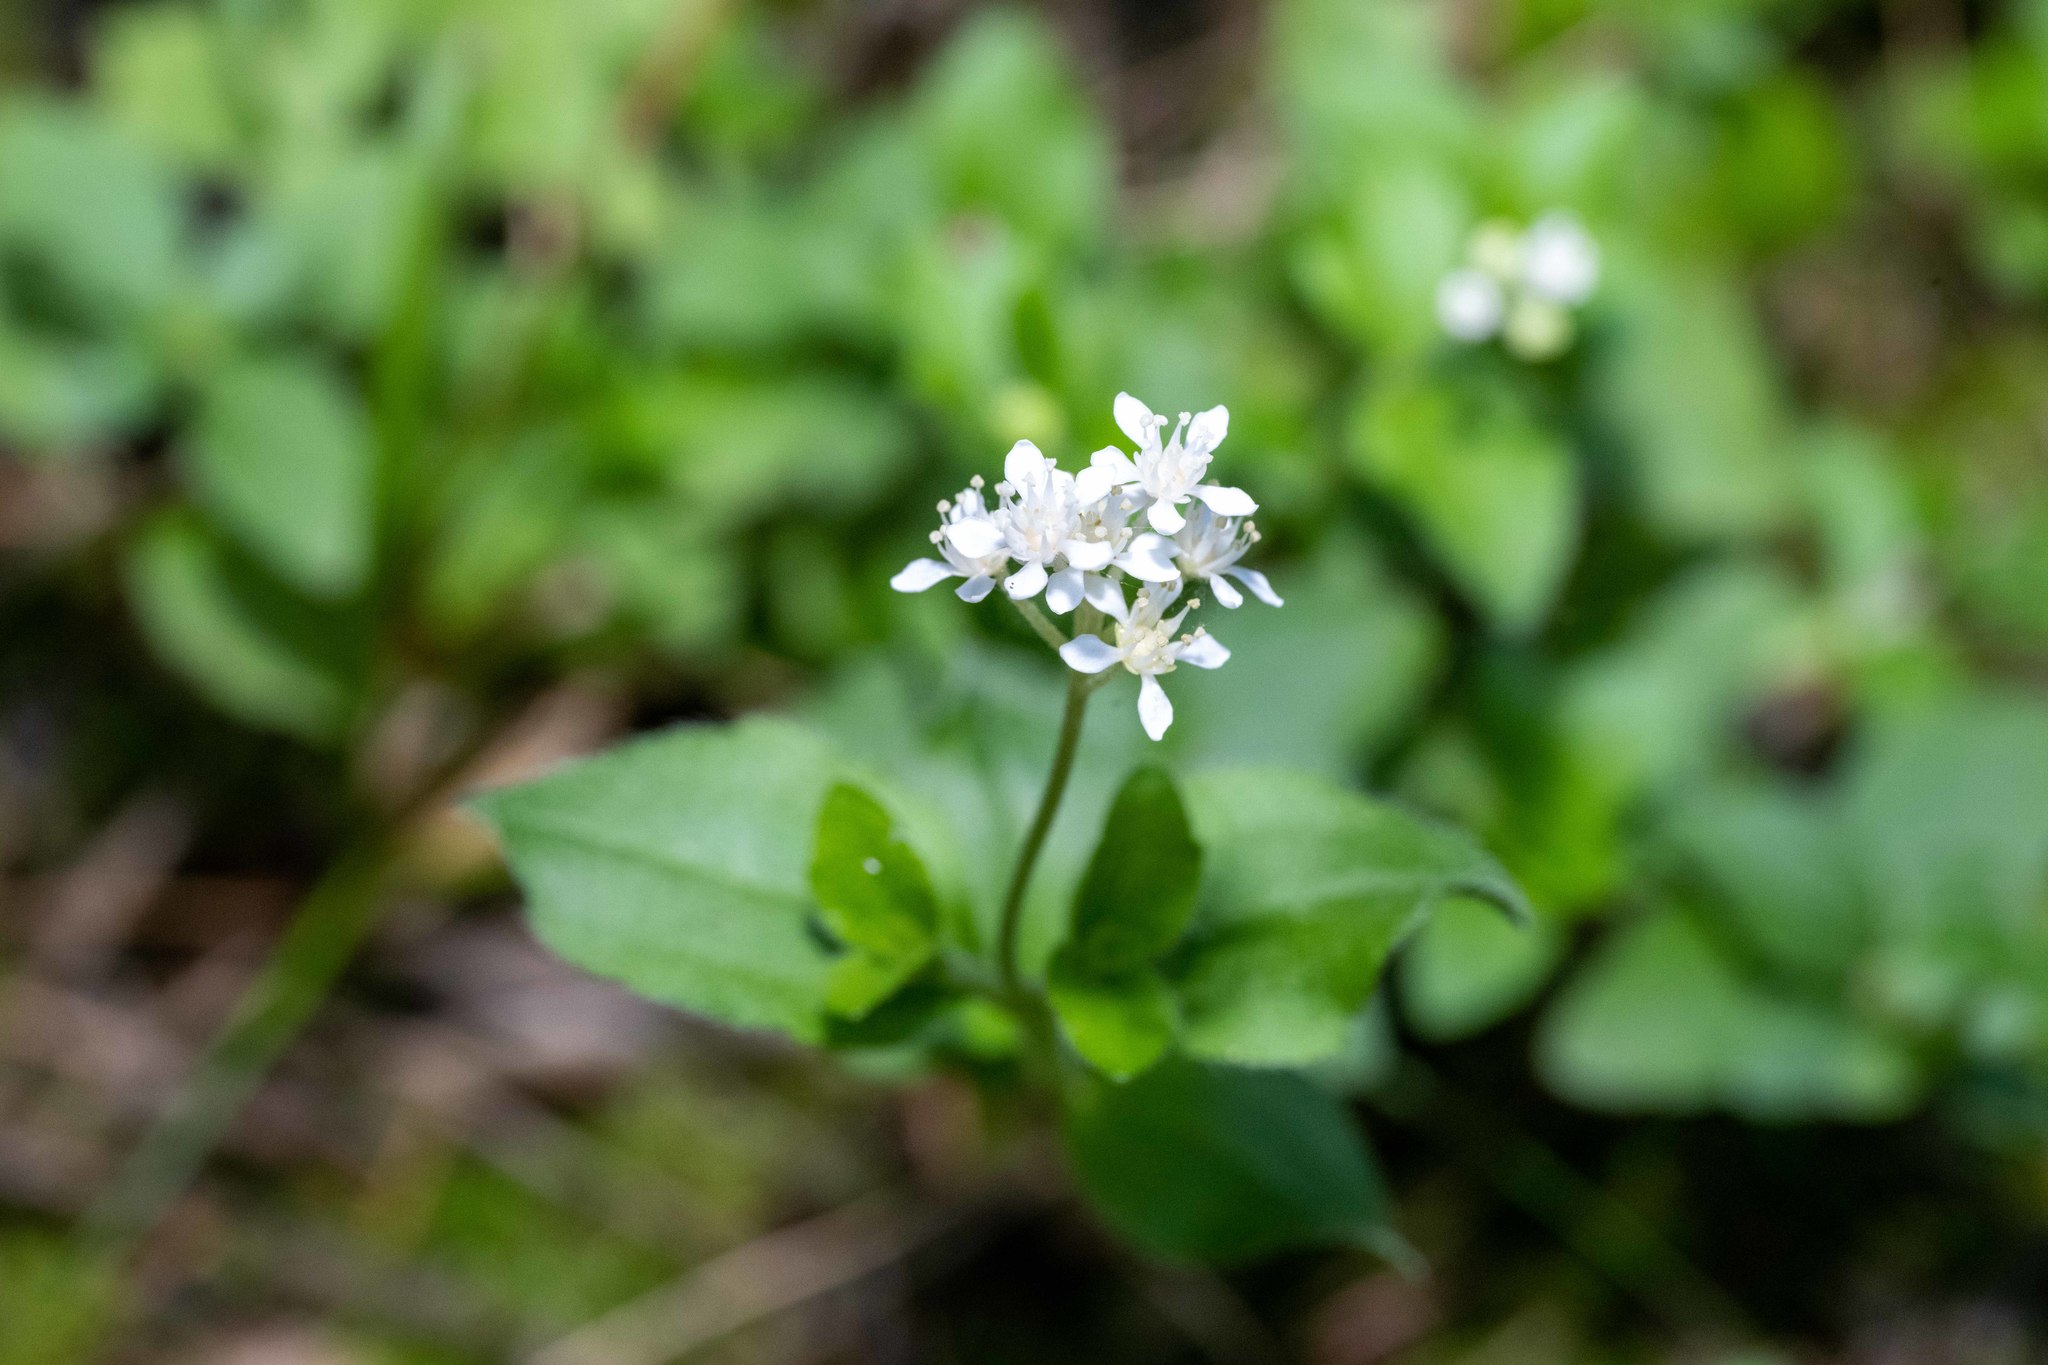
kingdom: Plantae
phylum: Tracheophyta
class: Magnoliopsida
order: Cornales
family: Hydrangeaceae
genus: Whipplea
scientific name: Whipplea modesta
